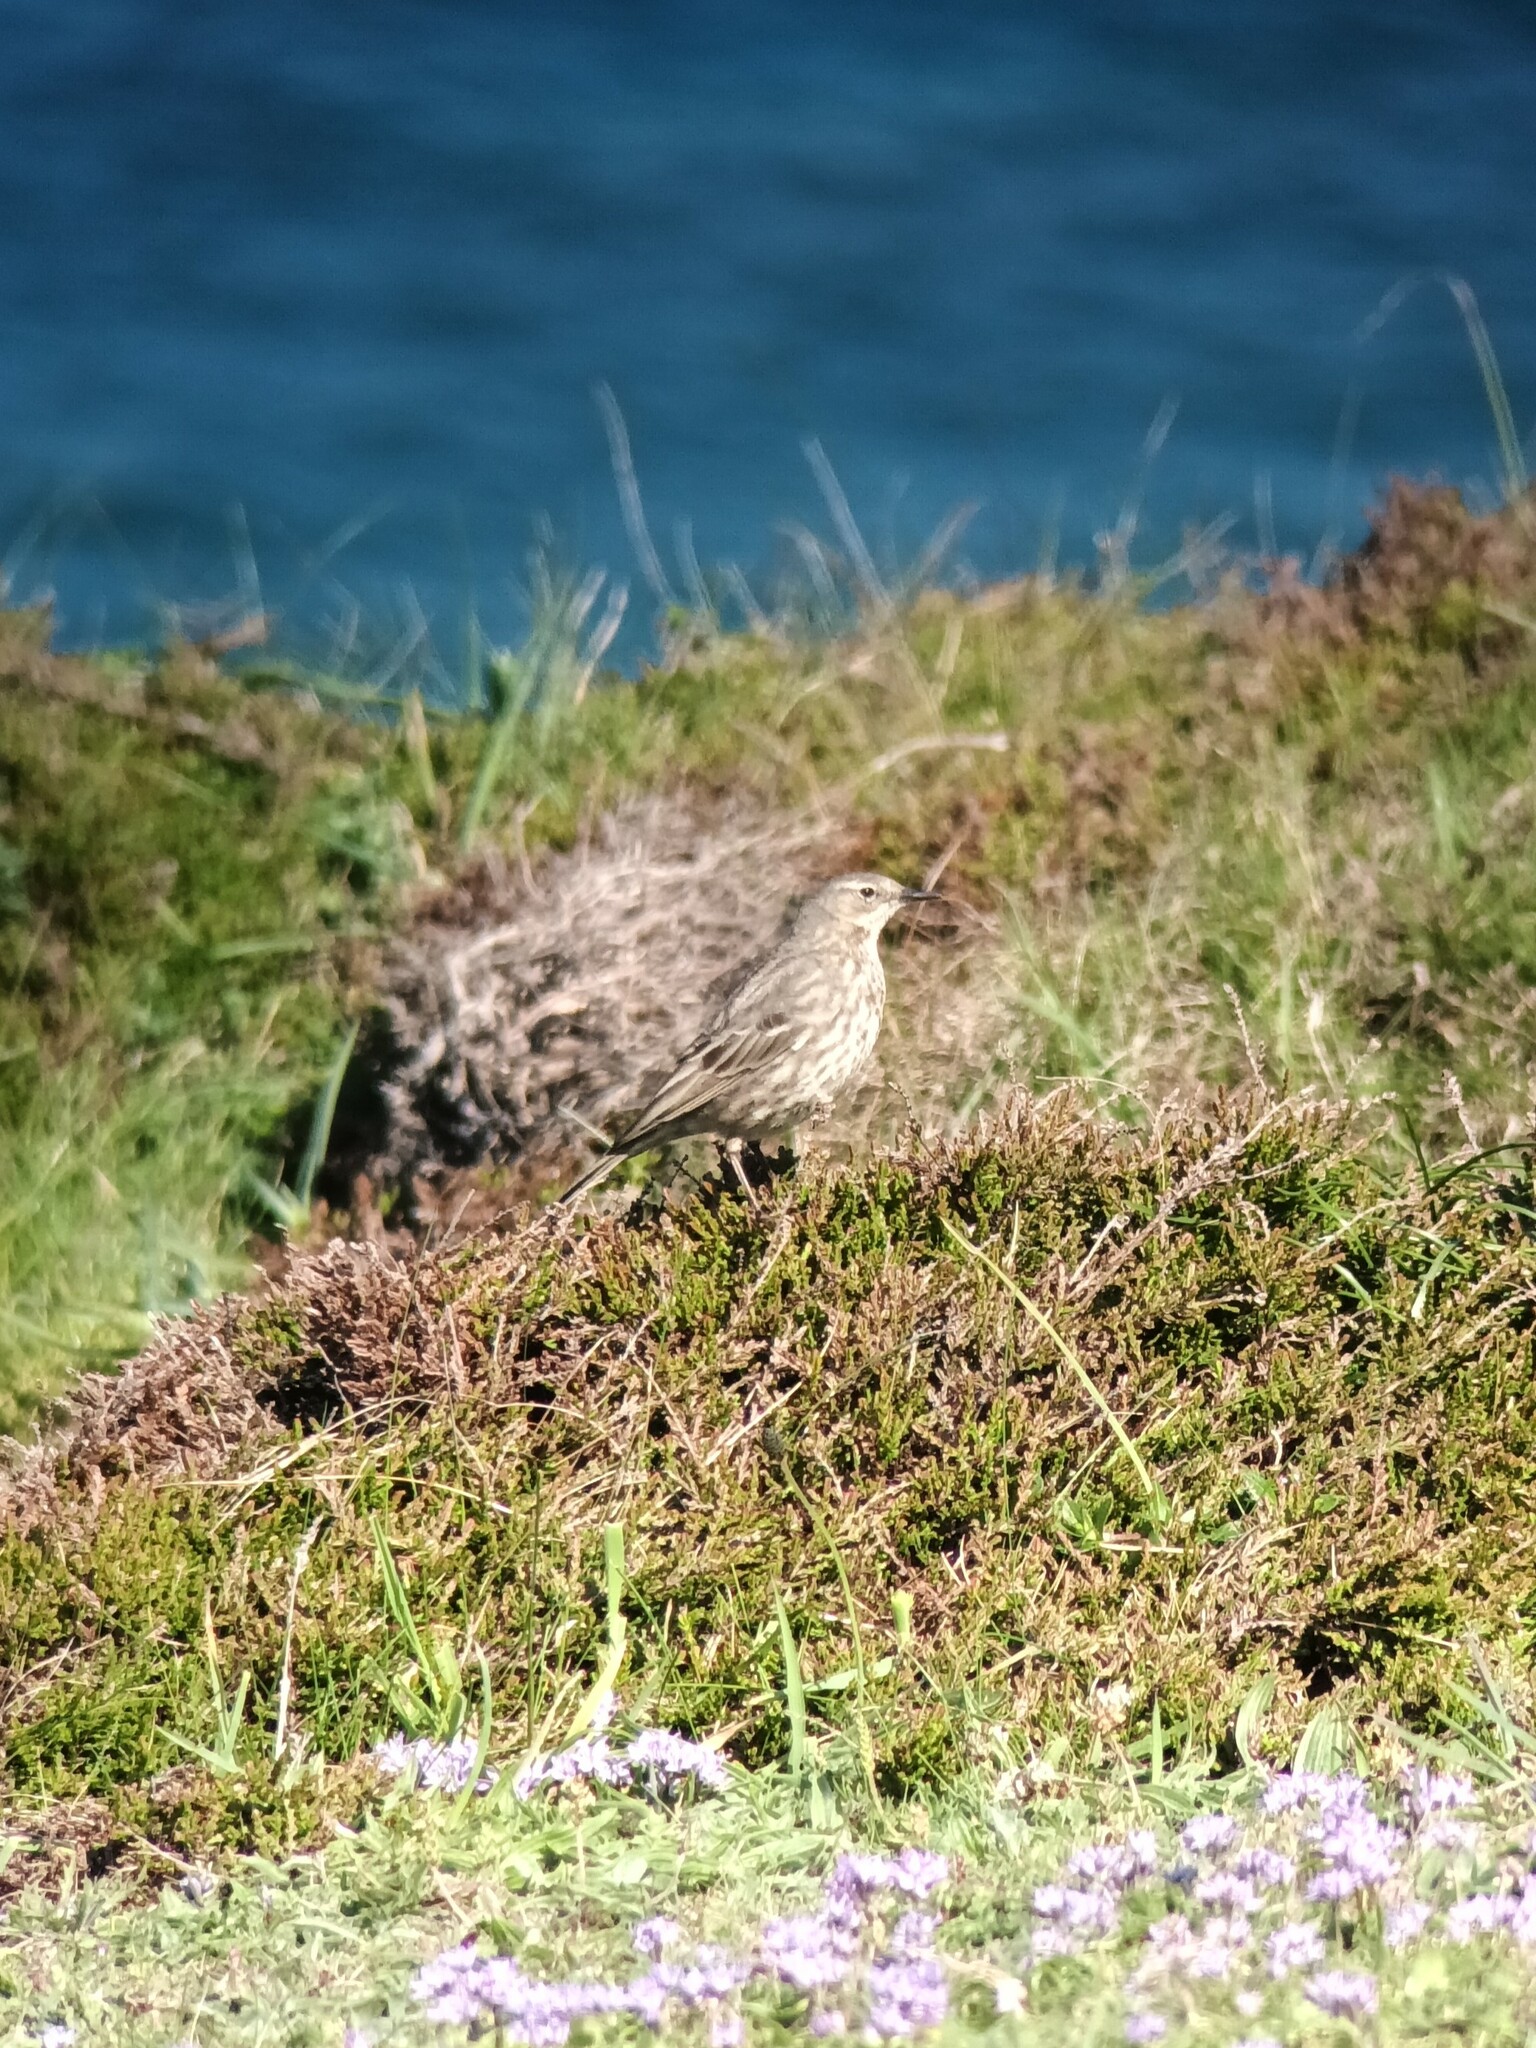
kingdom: Animalia
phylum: Chordata
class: Aves
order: Passeriformes
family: Motacillidae
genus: Anthus
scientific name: Anthus petrosus
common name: Eurasian rock pipit
